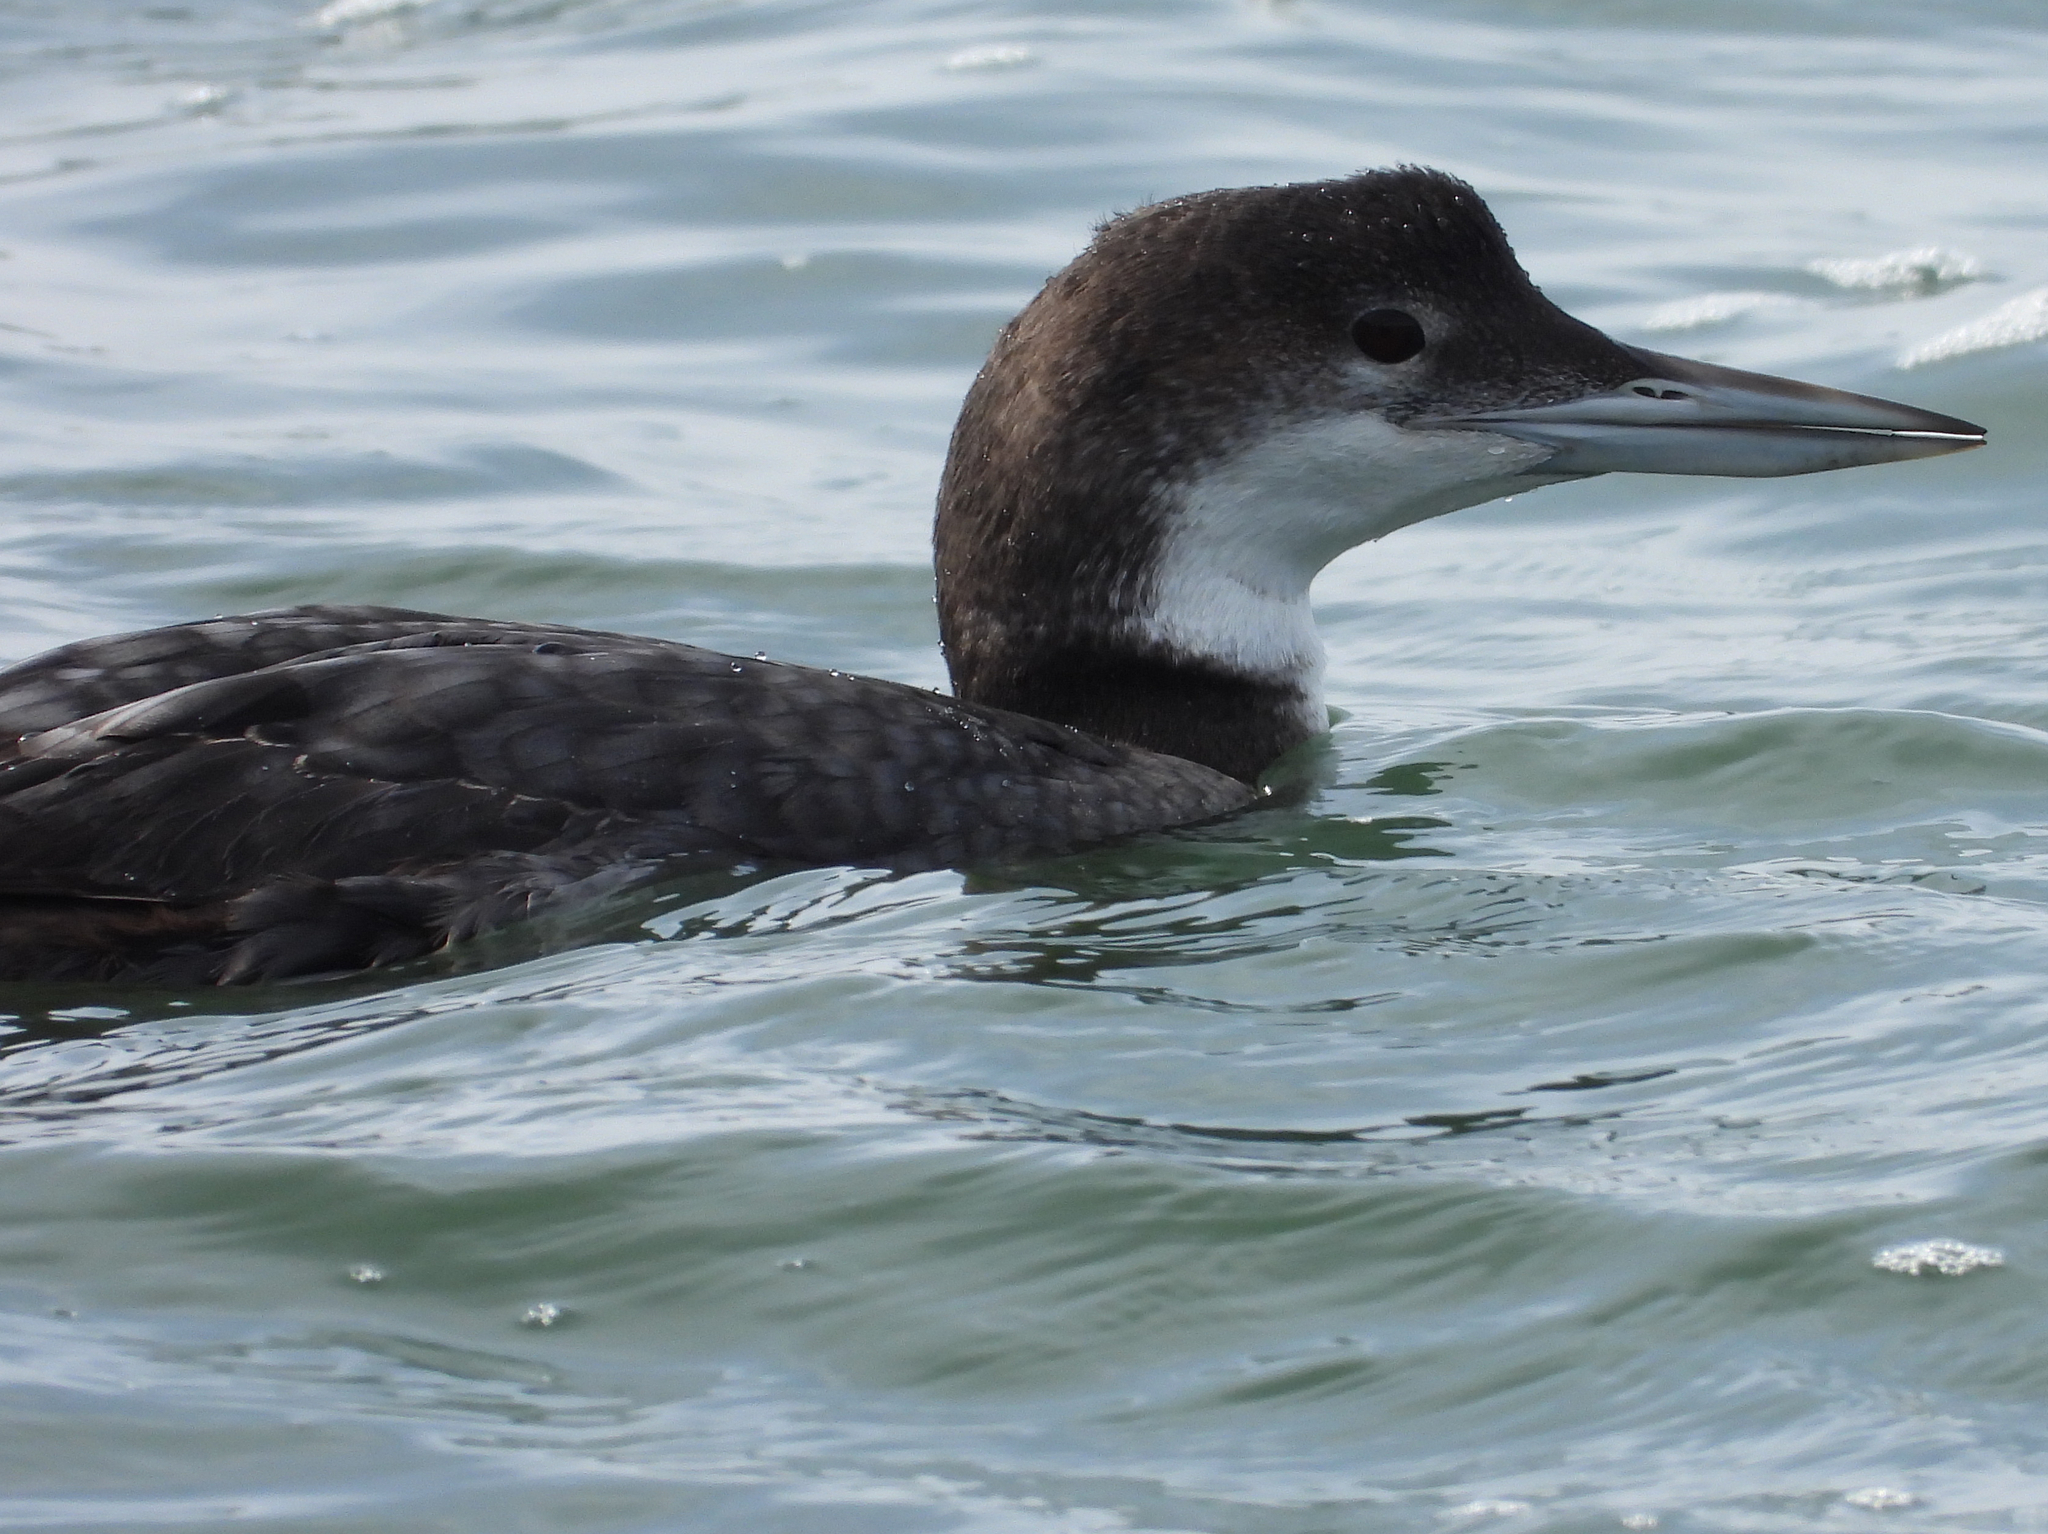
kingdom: Animalia
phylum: Chordata
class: Aves
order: Gaviiformes
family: Gaviidae
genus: Gavia
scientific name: Gavia immer
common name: Common loon
